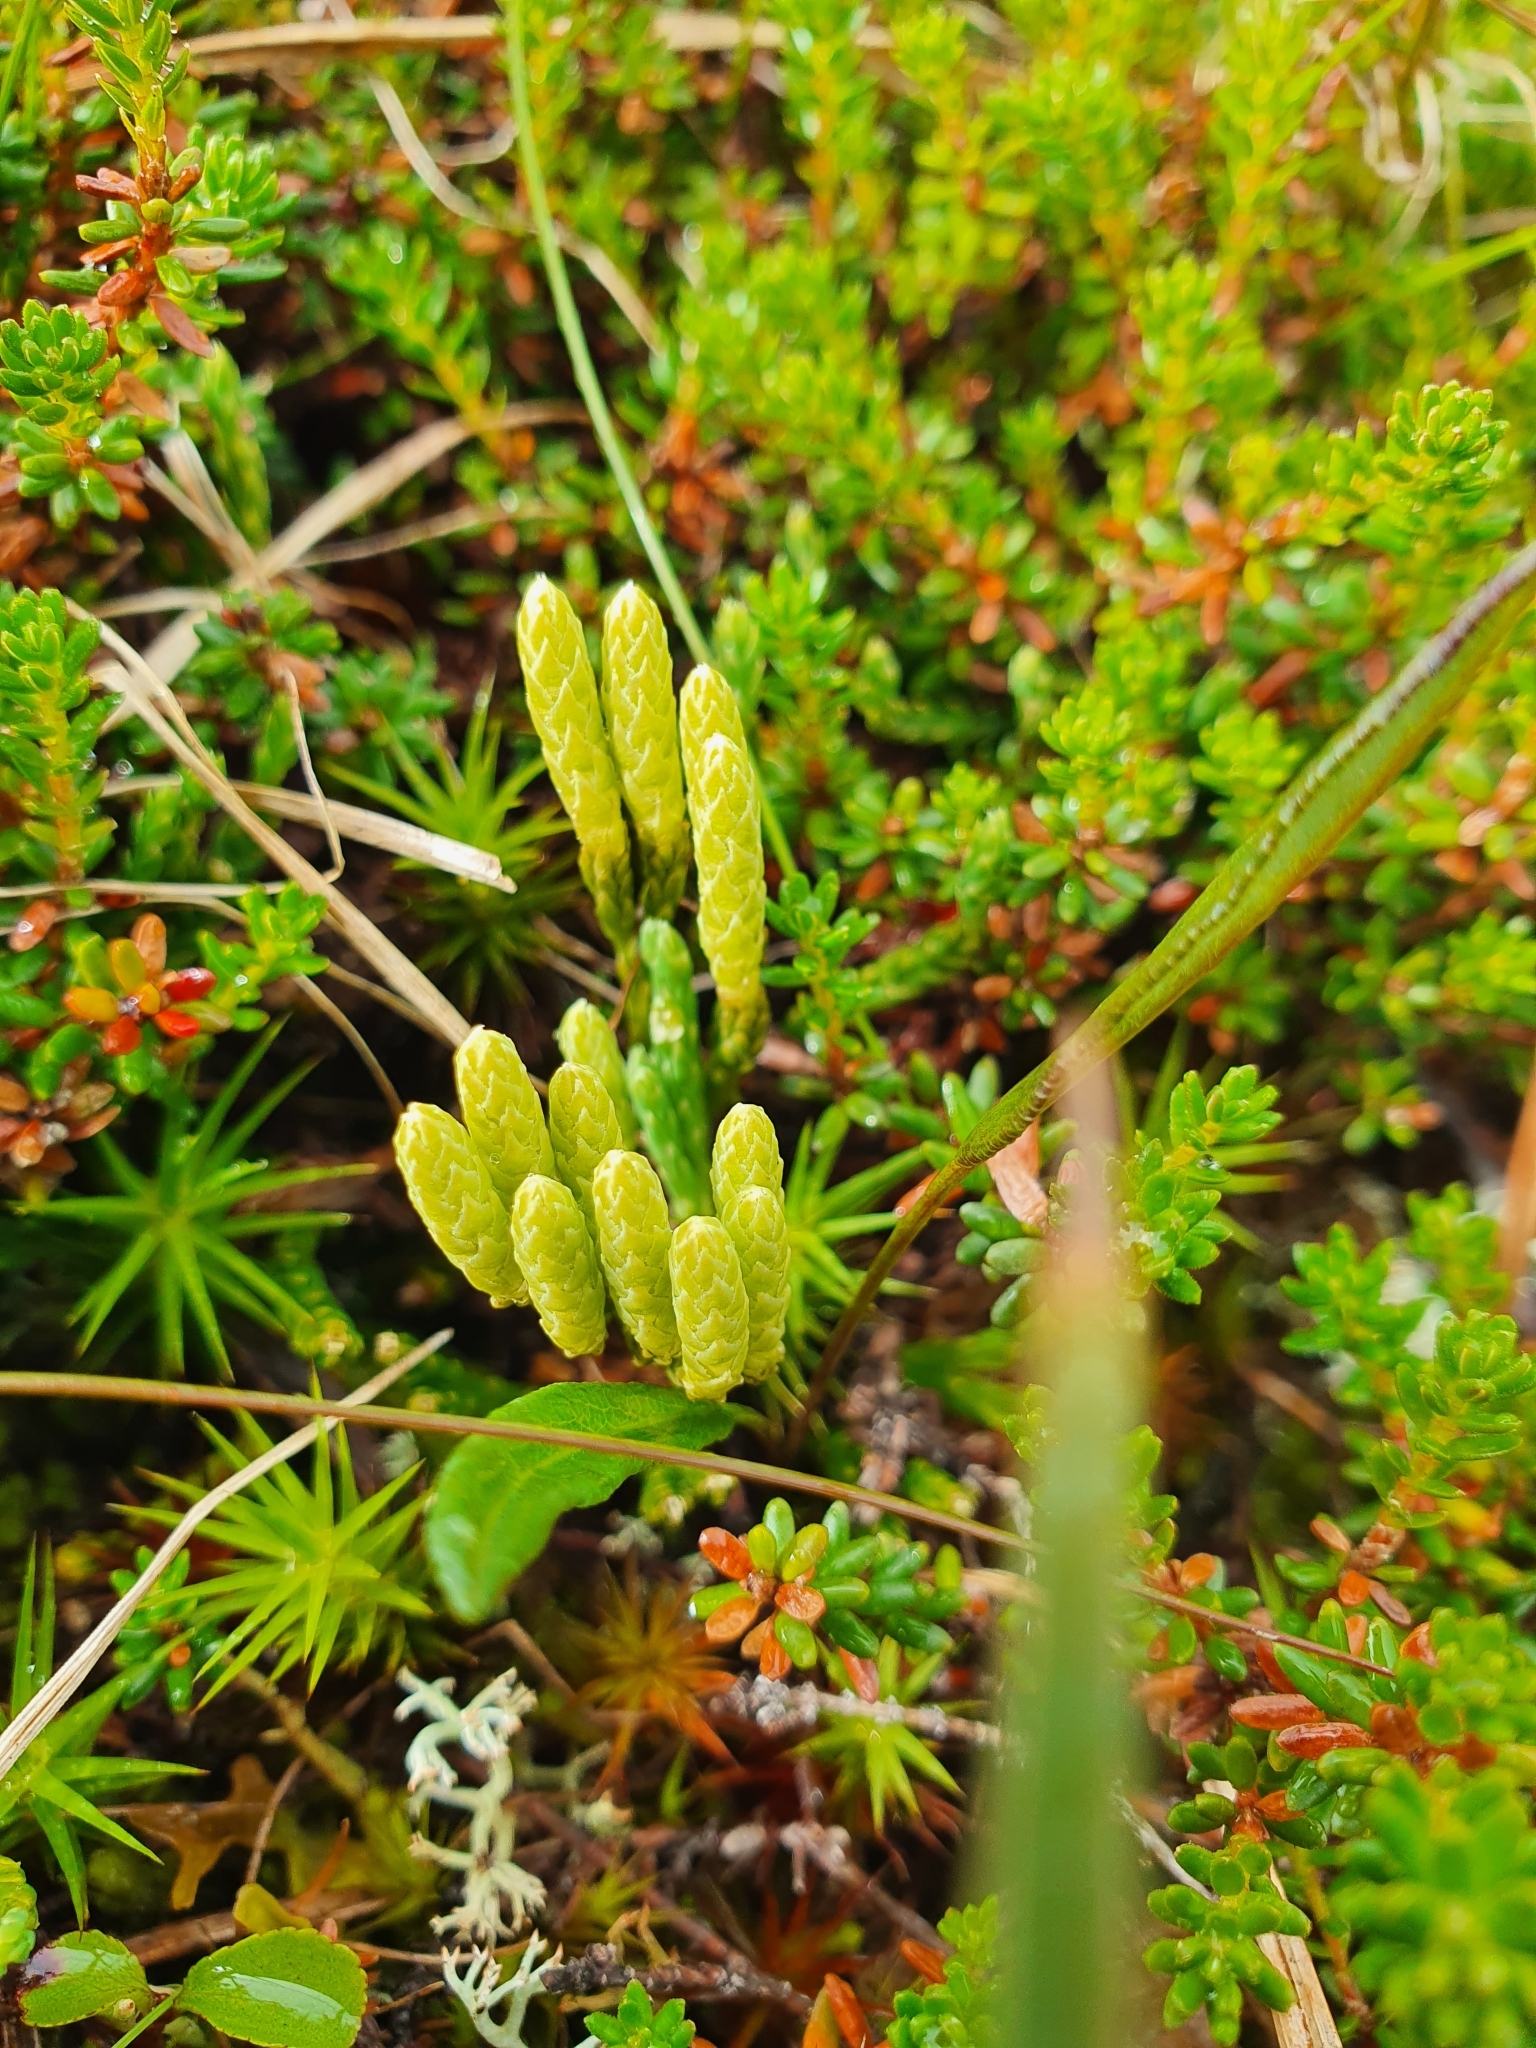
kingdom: Plantae
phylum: Tracheophyta
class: Lycopodiopsida
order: Lycopodiales
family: Lycopodiaceae
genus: Diphasiastrum
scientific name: Diphasiastrum alpinum
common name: Alpine clubmoss
